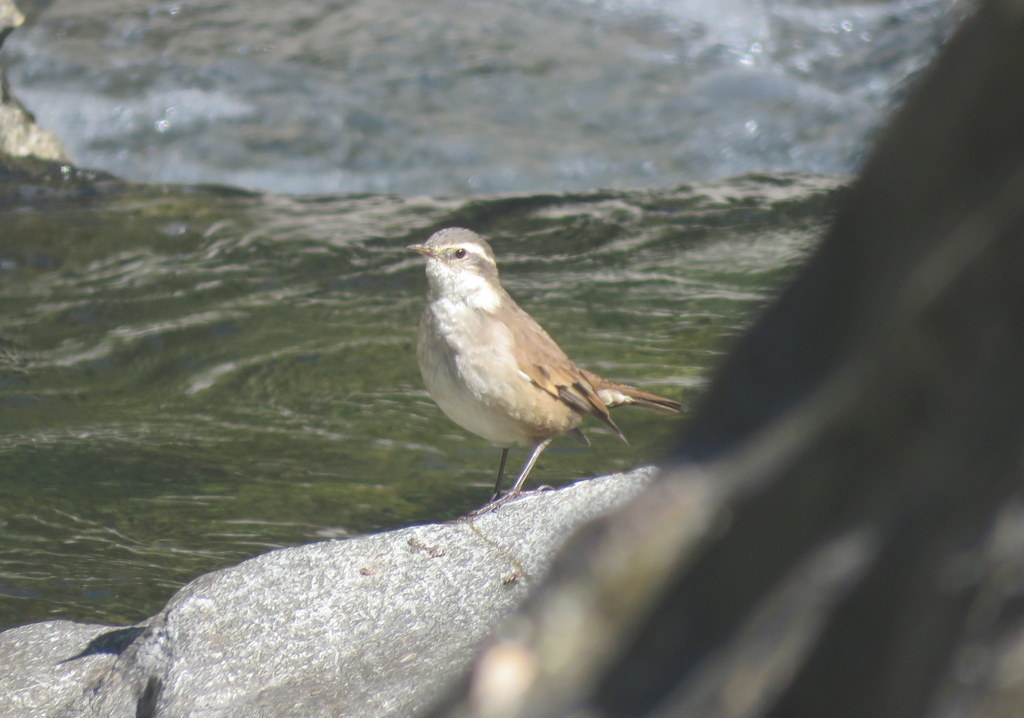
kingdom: Animalia
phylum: Chordata
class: Aves
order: Passeriformes
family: Furnariidae
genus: Cinclodes
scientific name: Cinclodes fuscus
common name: Buff-winged cinclodes
